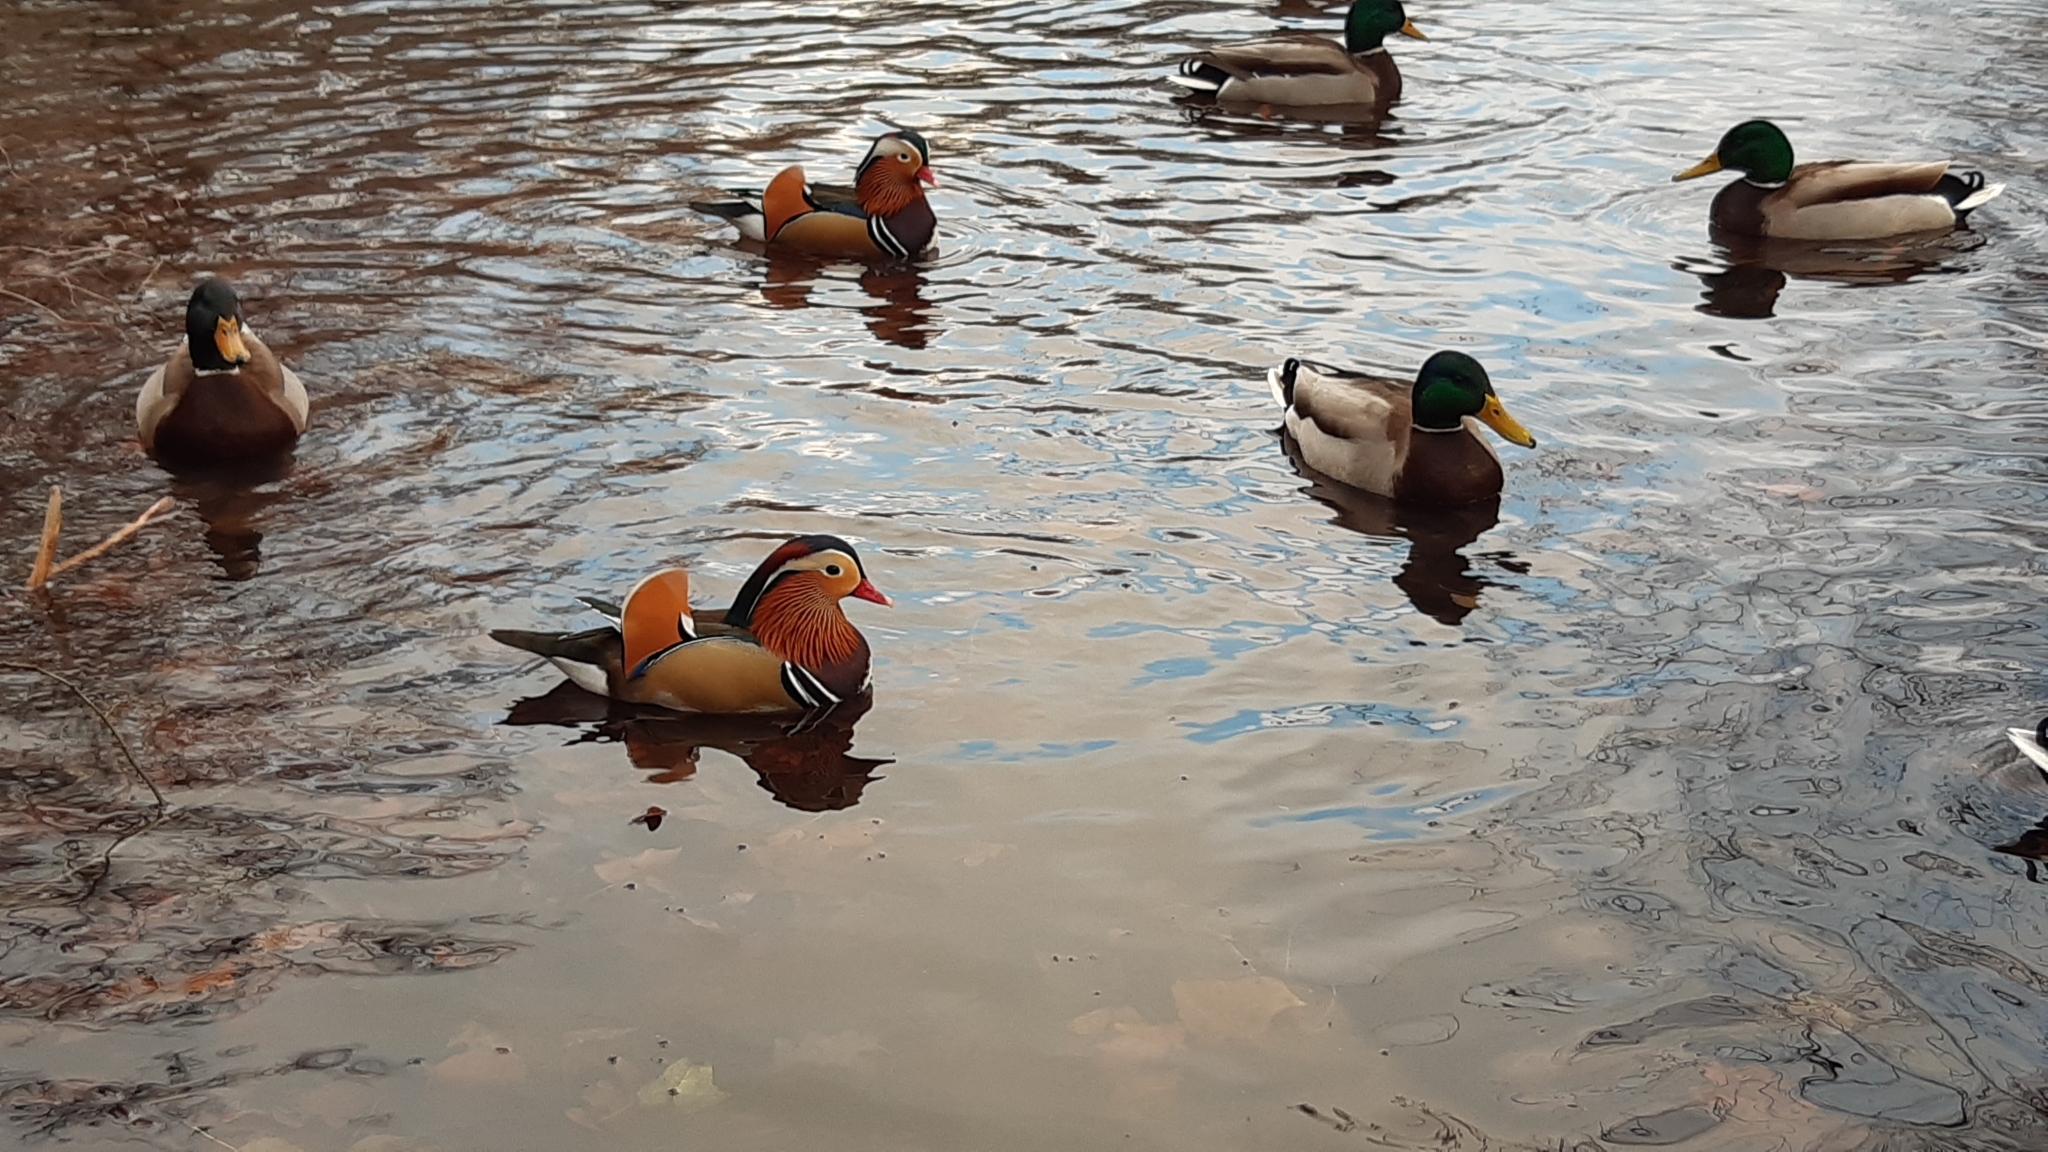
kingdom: Animalia
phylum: Chordata
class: Aves
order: Anseriformes
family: Anatidae
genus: Aix
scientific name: Aix galericulata
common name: Mandarin duck
